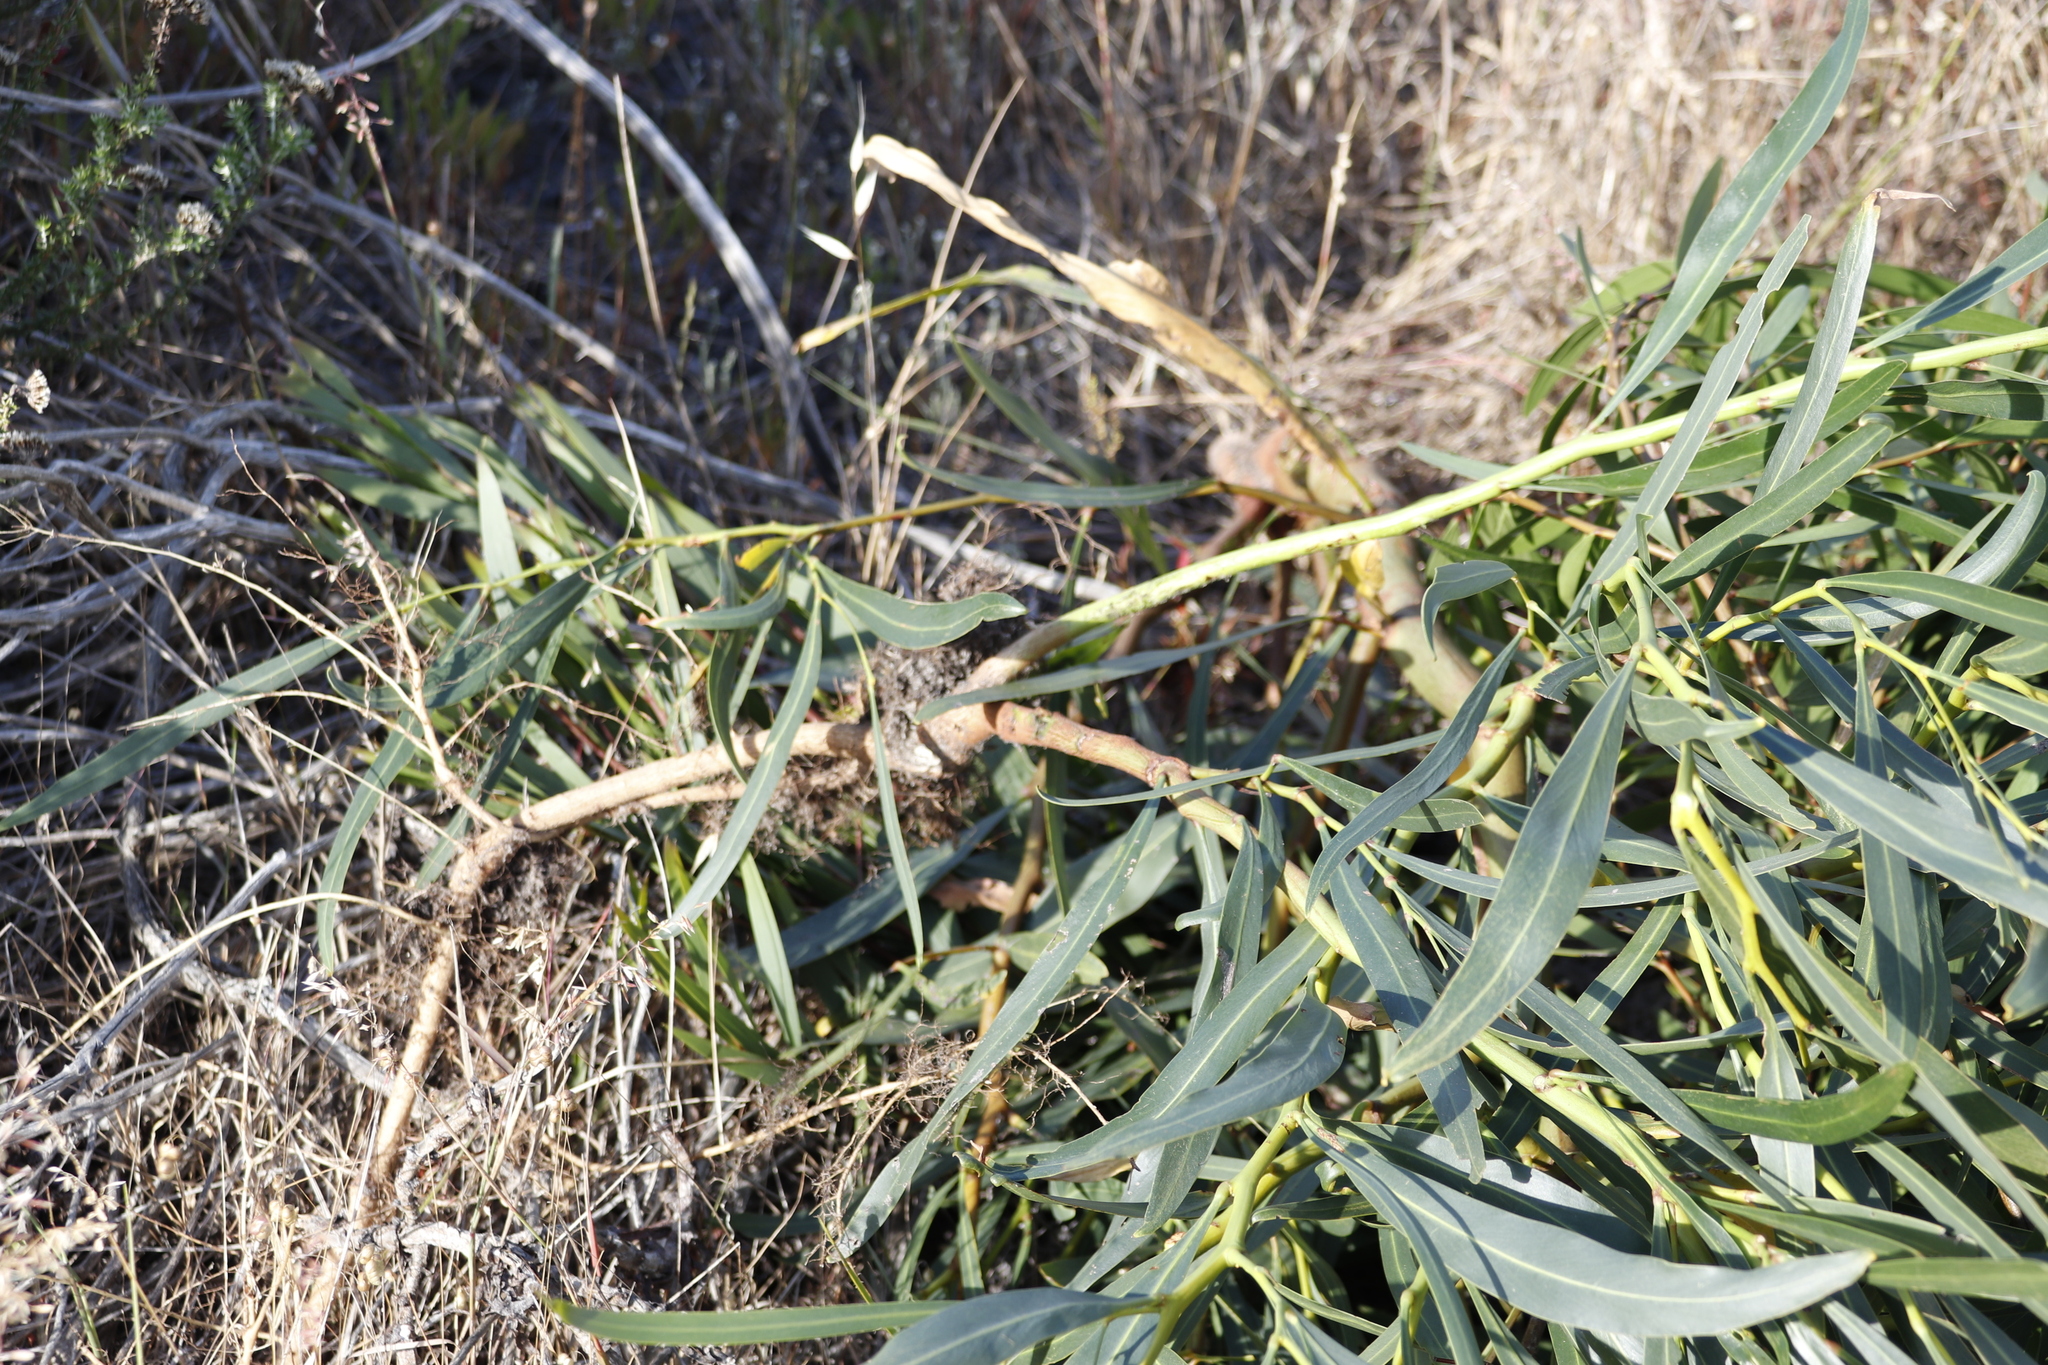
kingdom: Plantae
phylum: Tracheophyta
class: Magnoliopsida
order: Fabales
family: Fabaceae
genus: Acacia
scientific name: Acacia saligna
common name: Orange wattle
